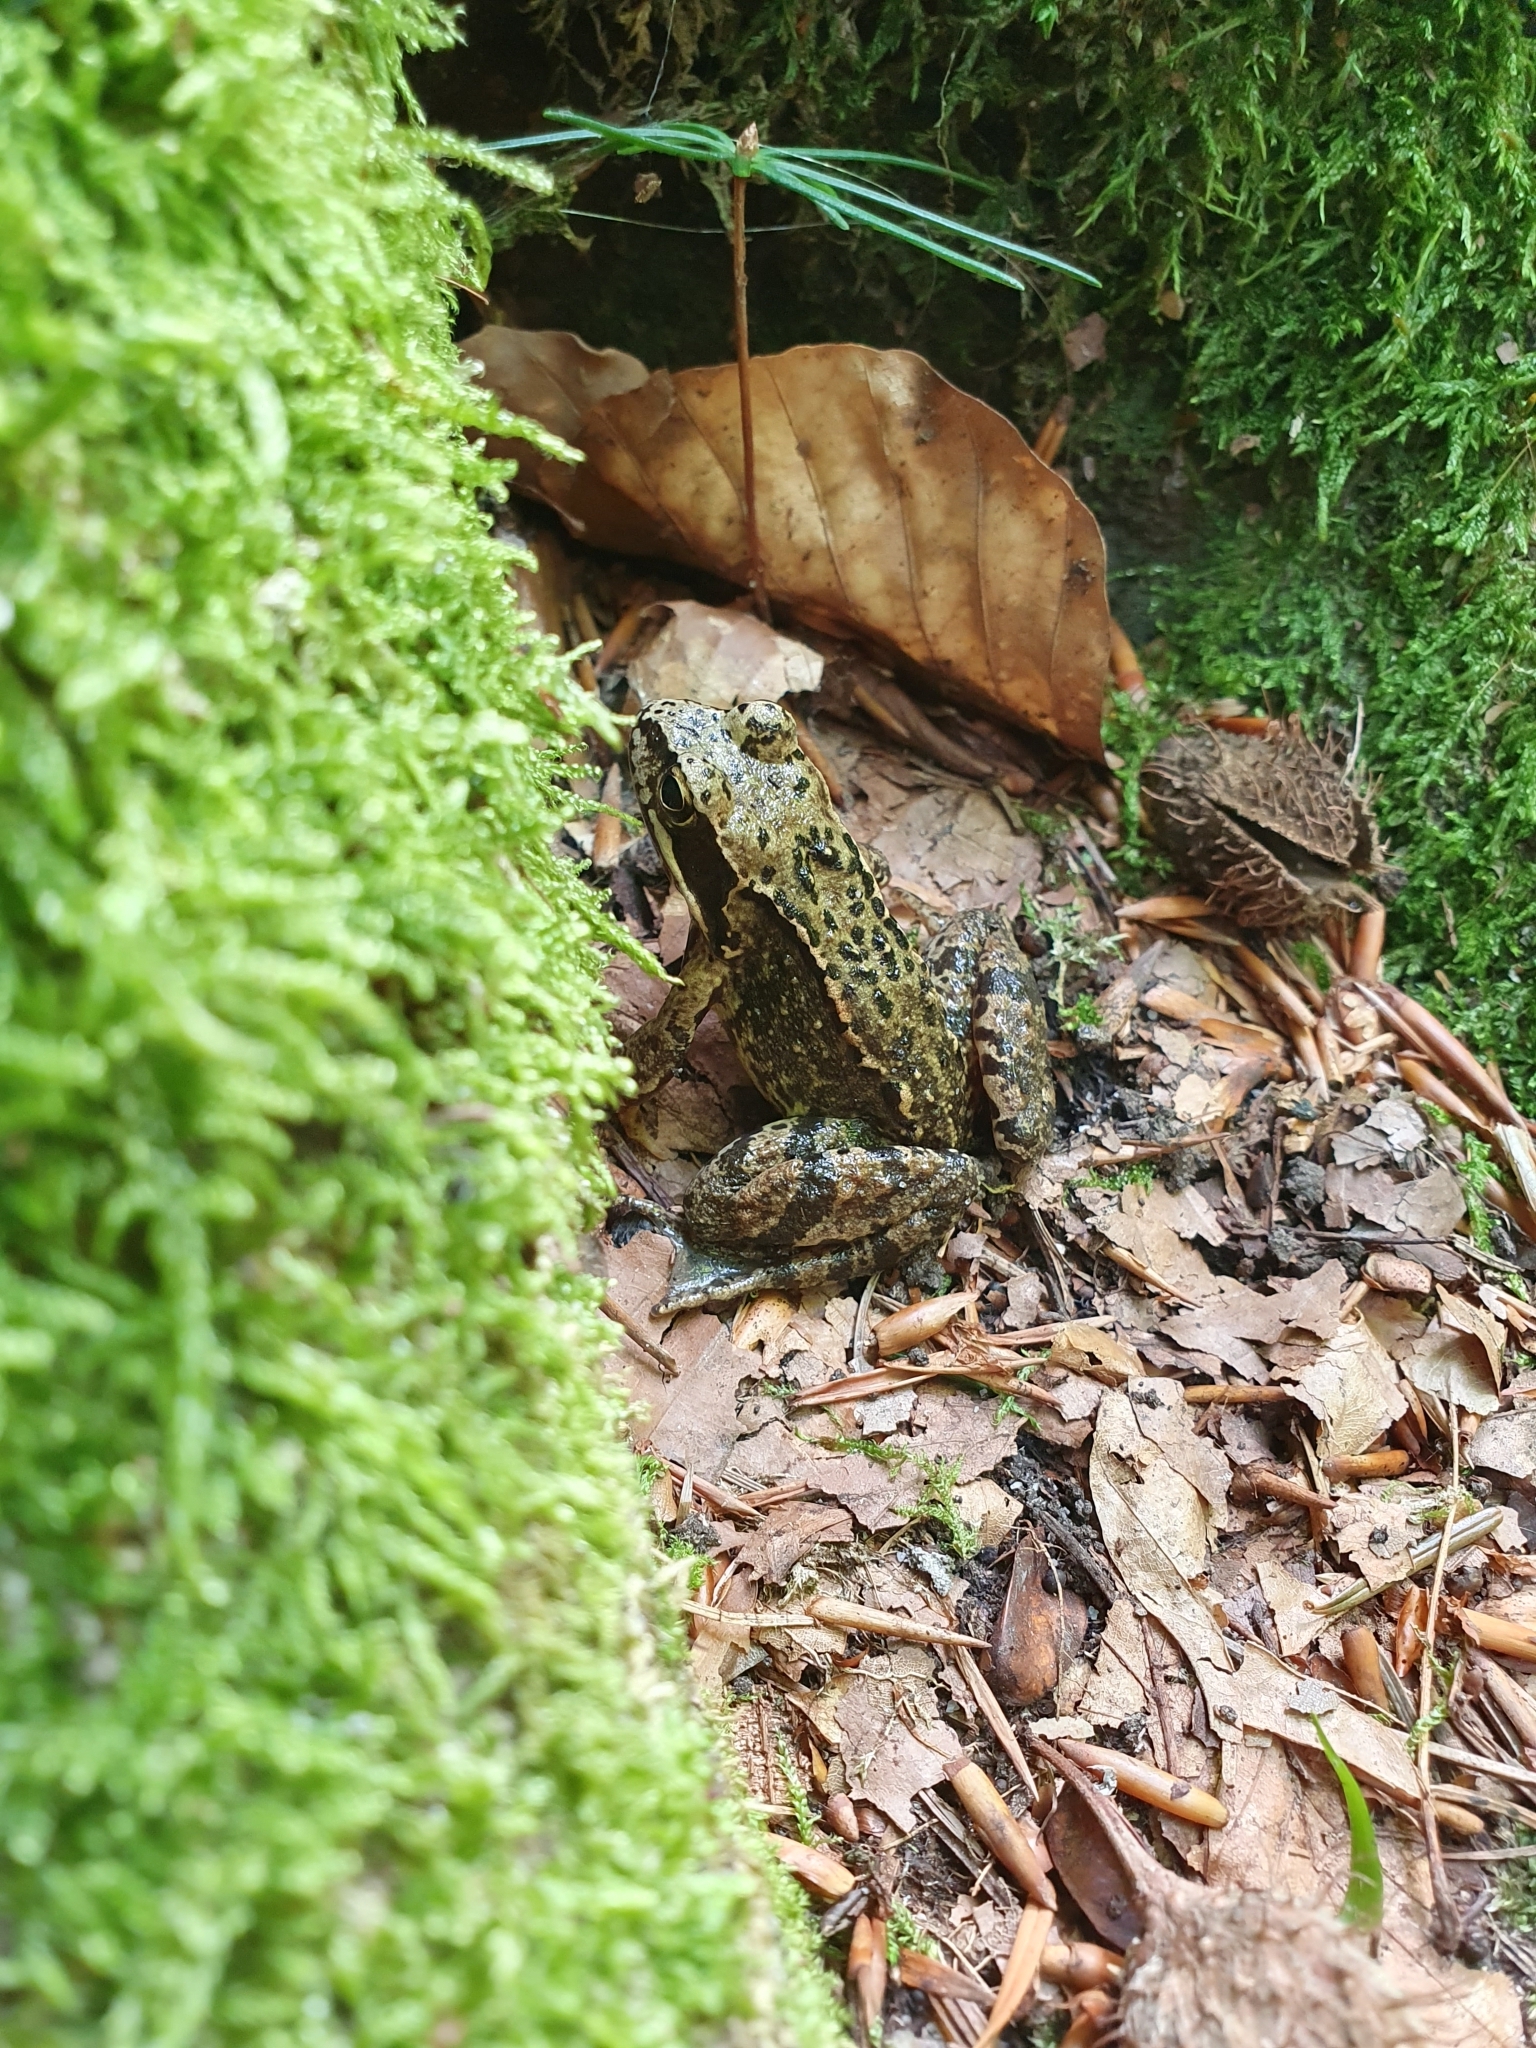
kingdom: Animalia
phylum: Chordata
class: Amphibia
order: Anura
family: Ranidae
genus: Rana
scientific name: Rana temporaria
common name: Common frog
